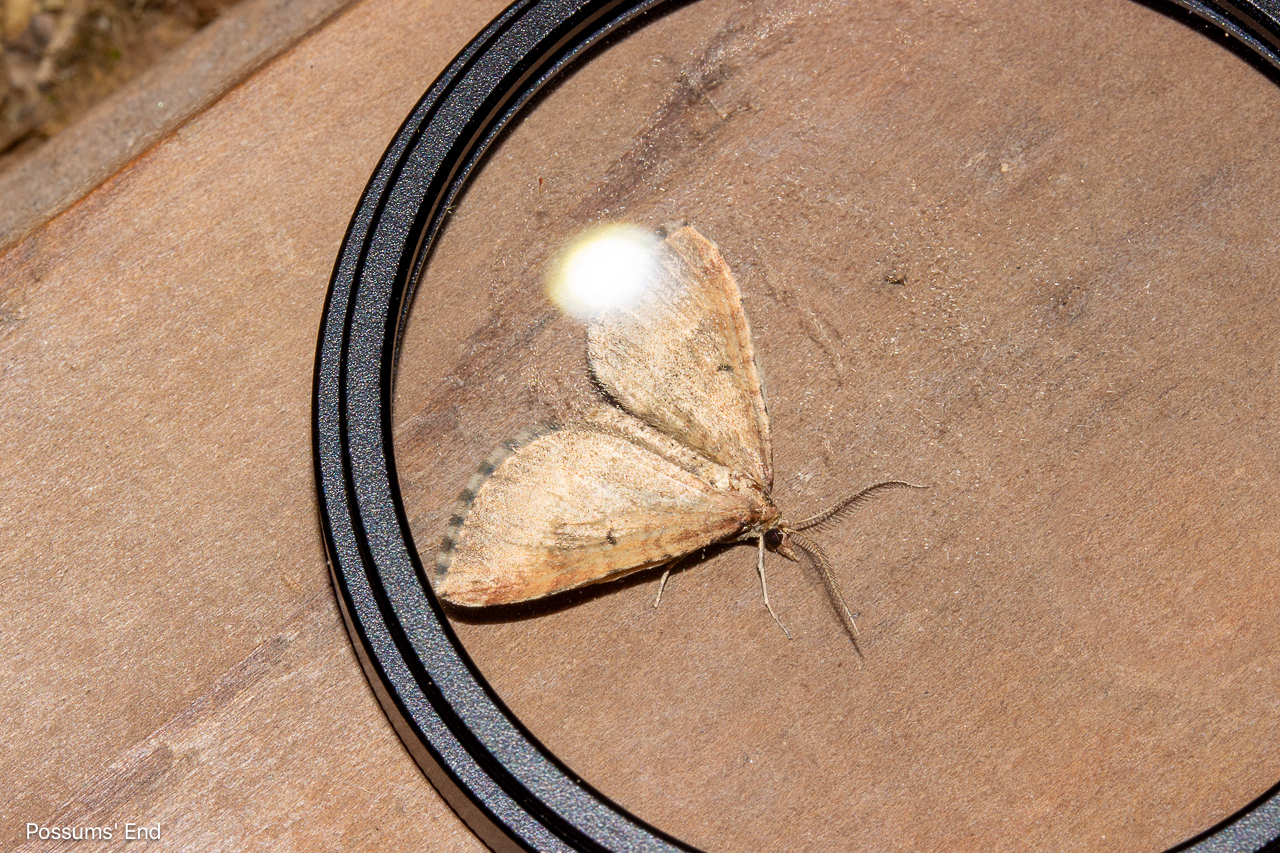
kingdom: Animalia
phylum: Arthropoda
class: Insecta
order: Lepidoptera
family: Geometridae
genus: Asaphodes
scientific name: Asaphodes aegrota
